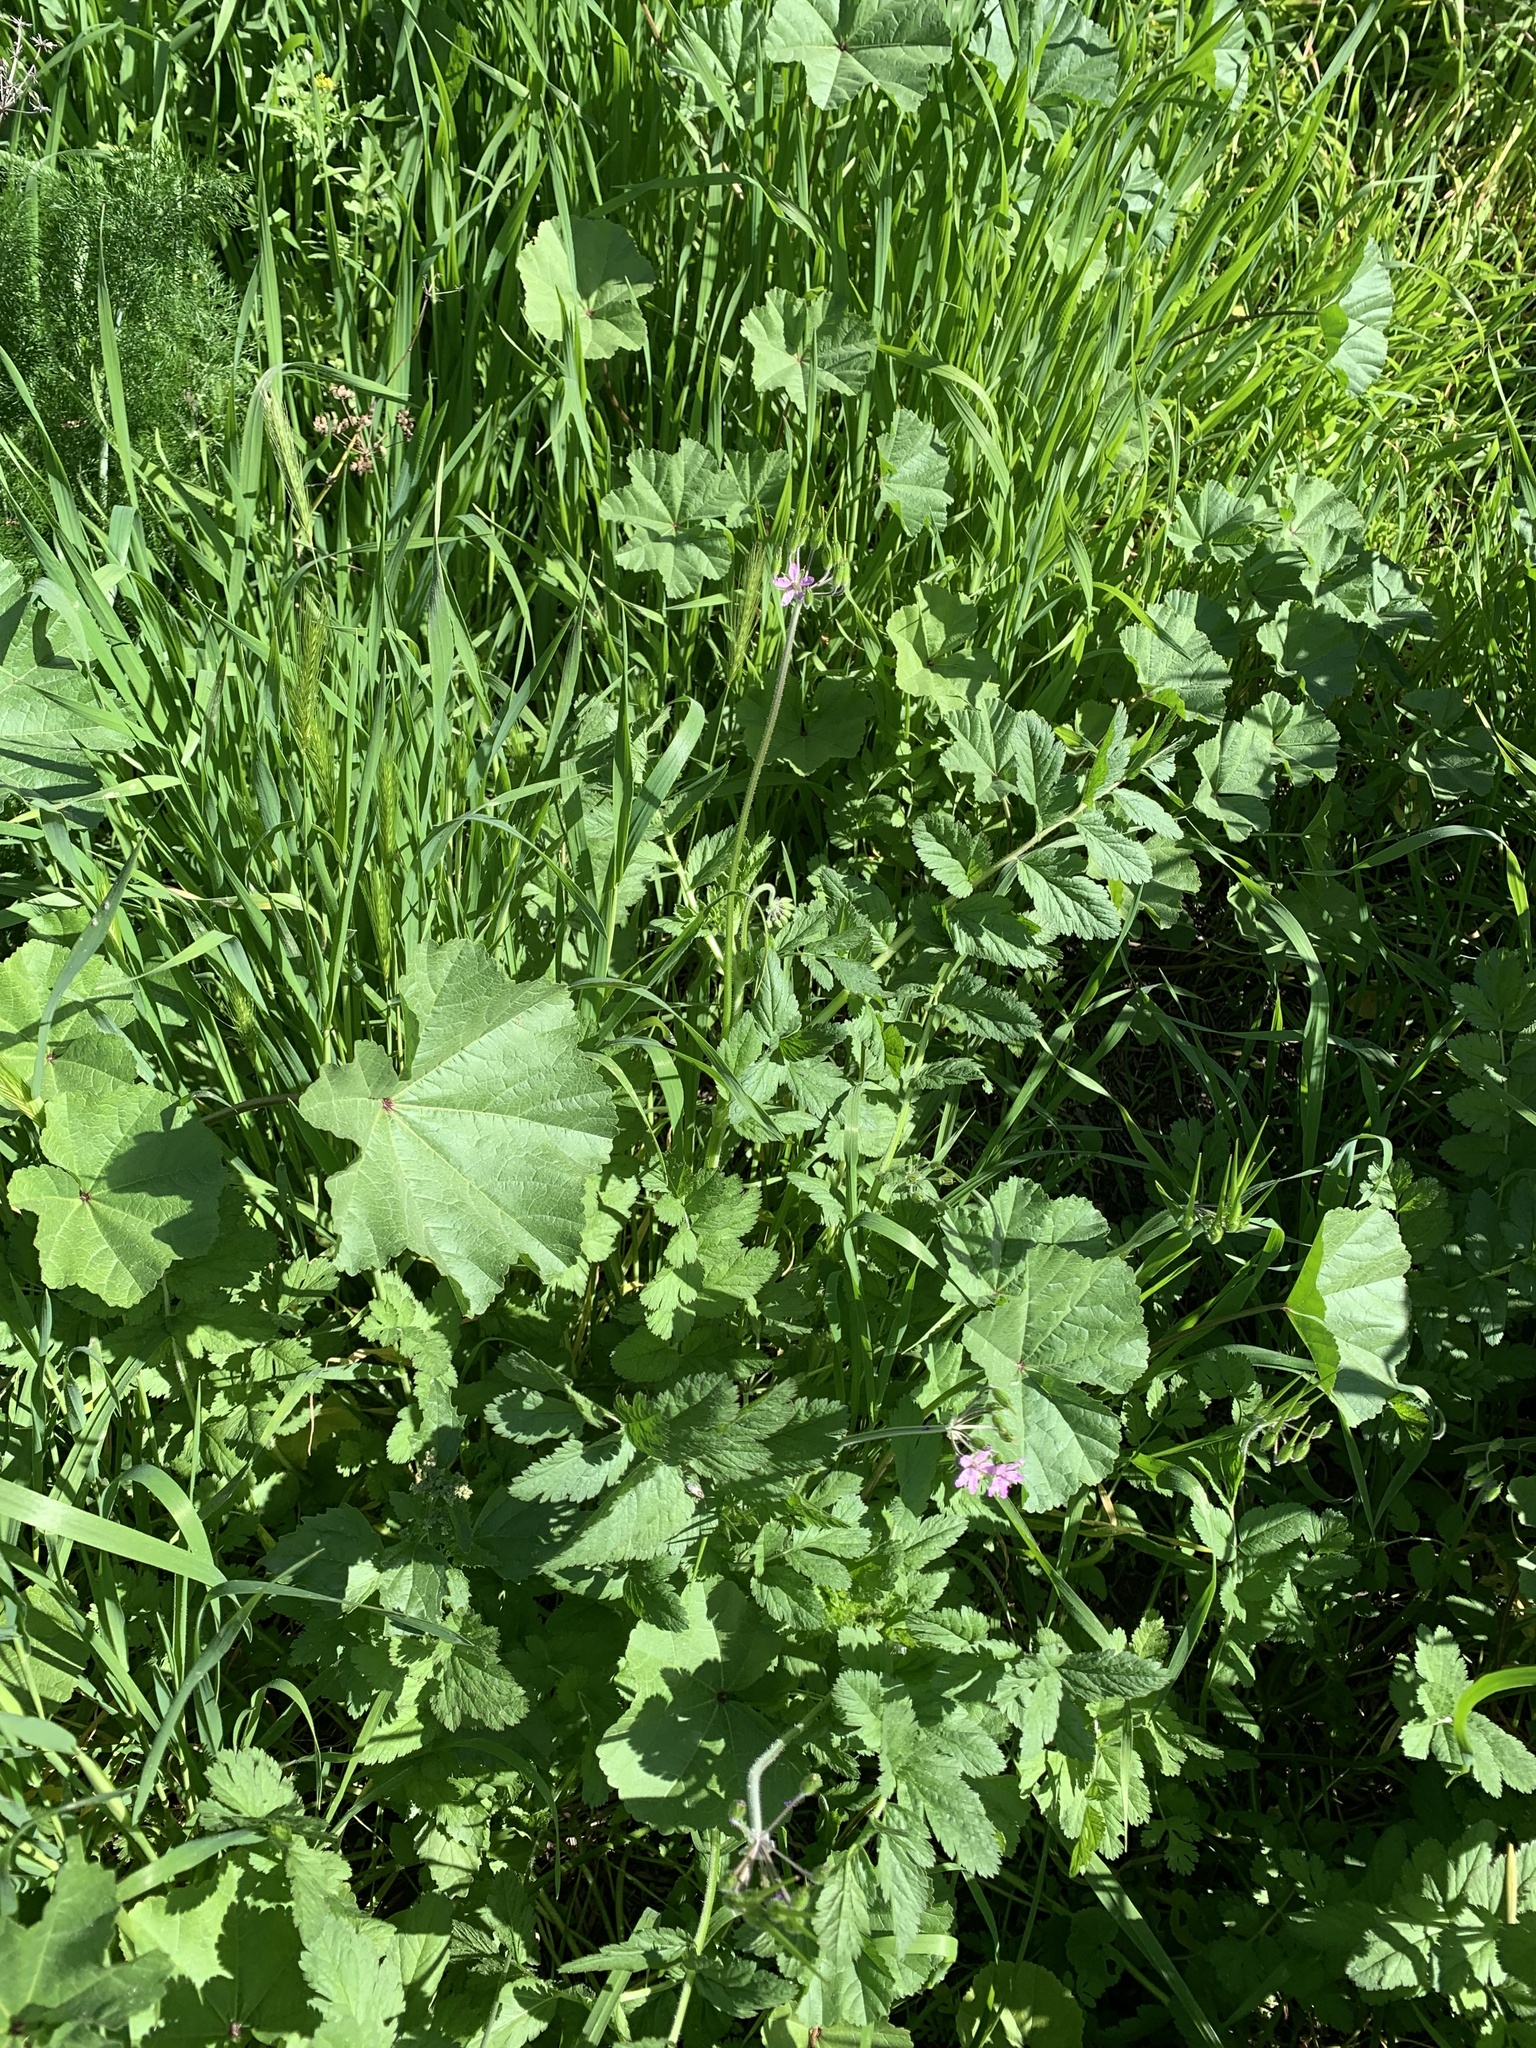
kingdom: Plantae
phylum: Tracheophyta
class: Magnoliopsida
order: Geraniales
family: Geraniaceae
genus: Erodium
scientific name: Erodium moschatum
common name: Musk stork's-bill
